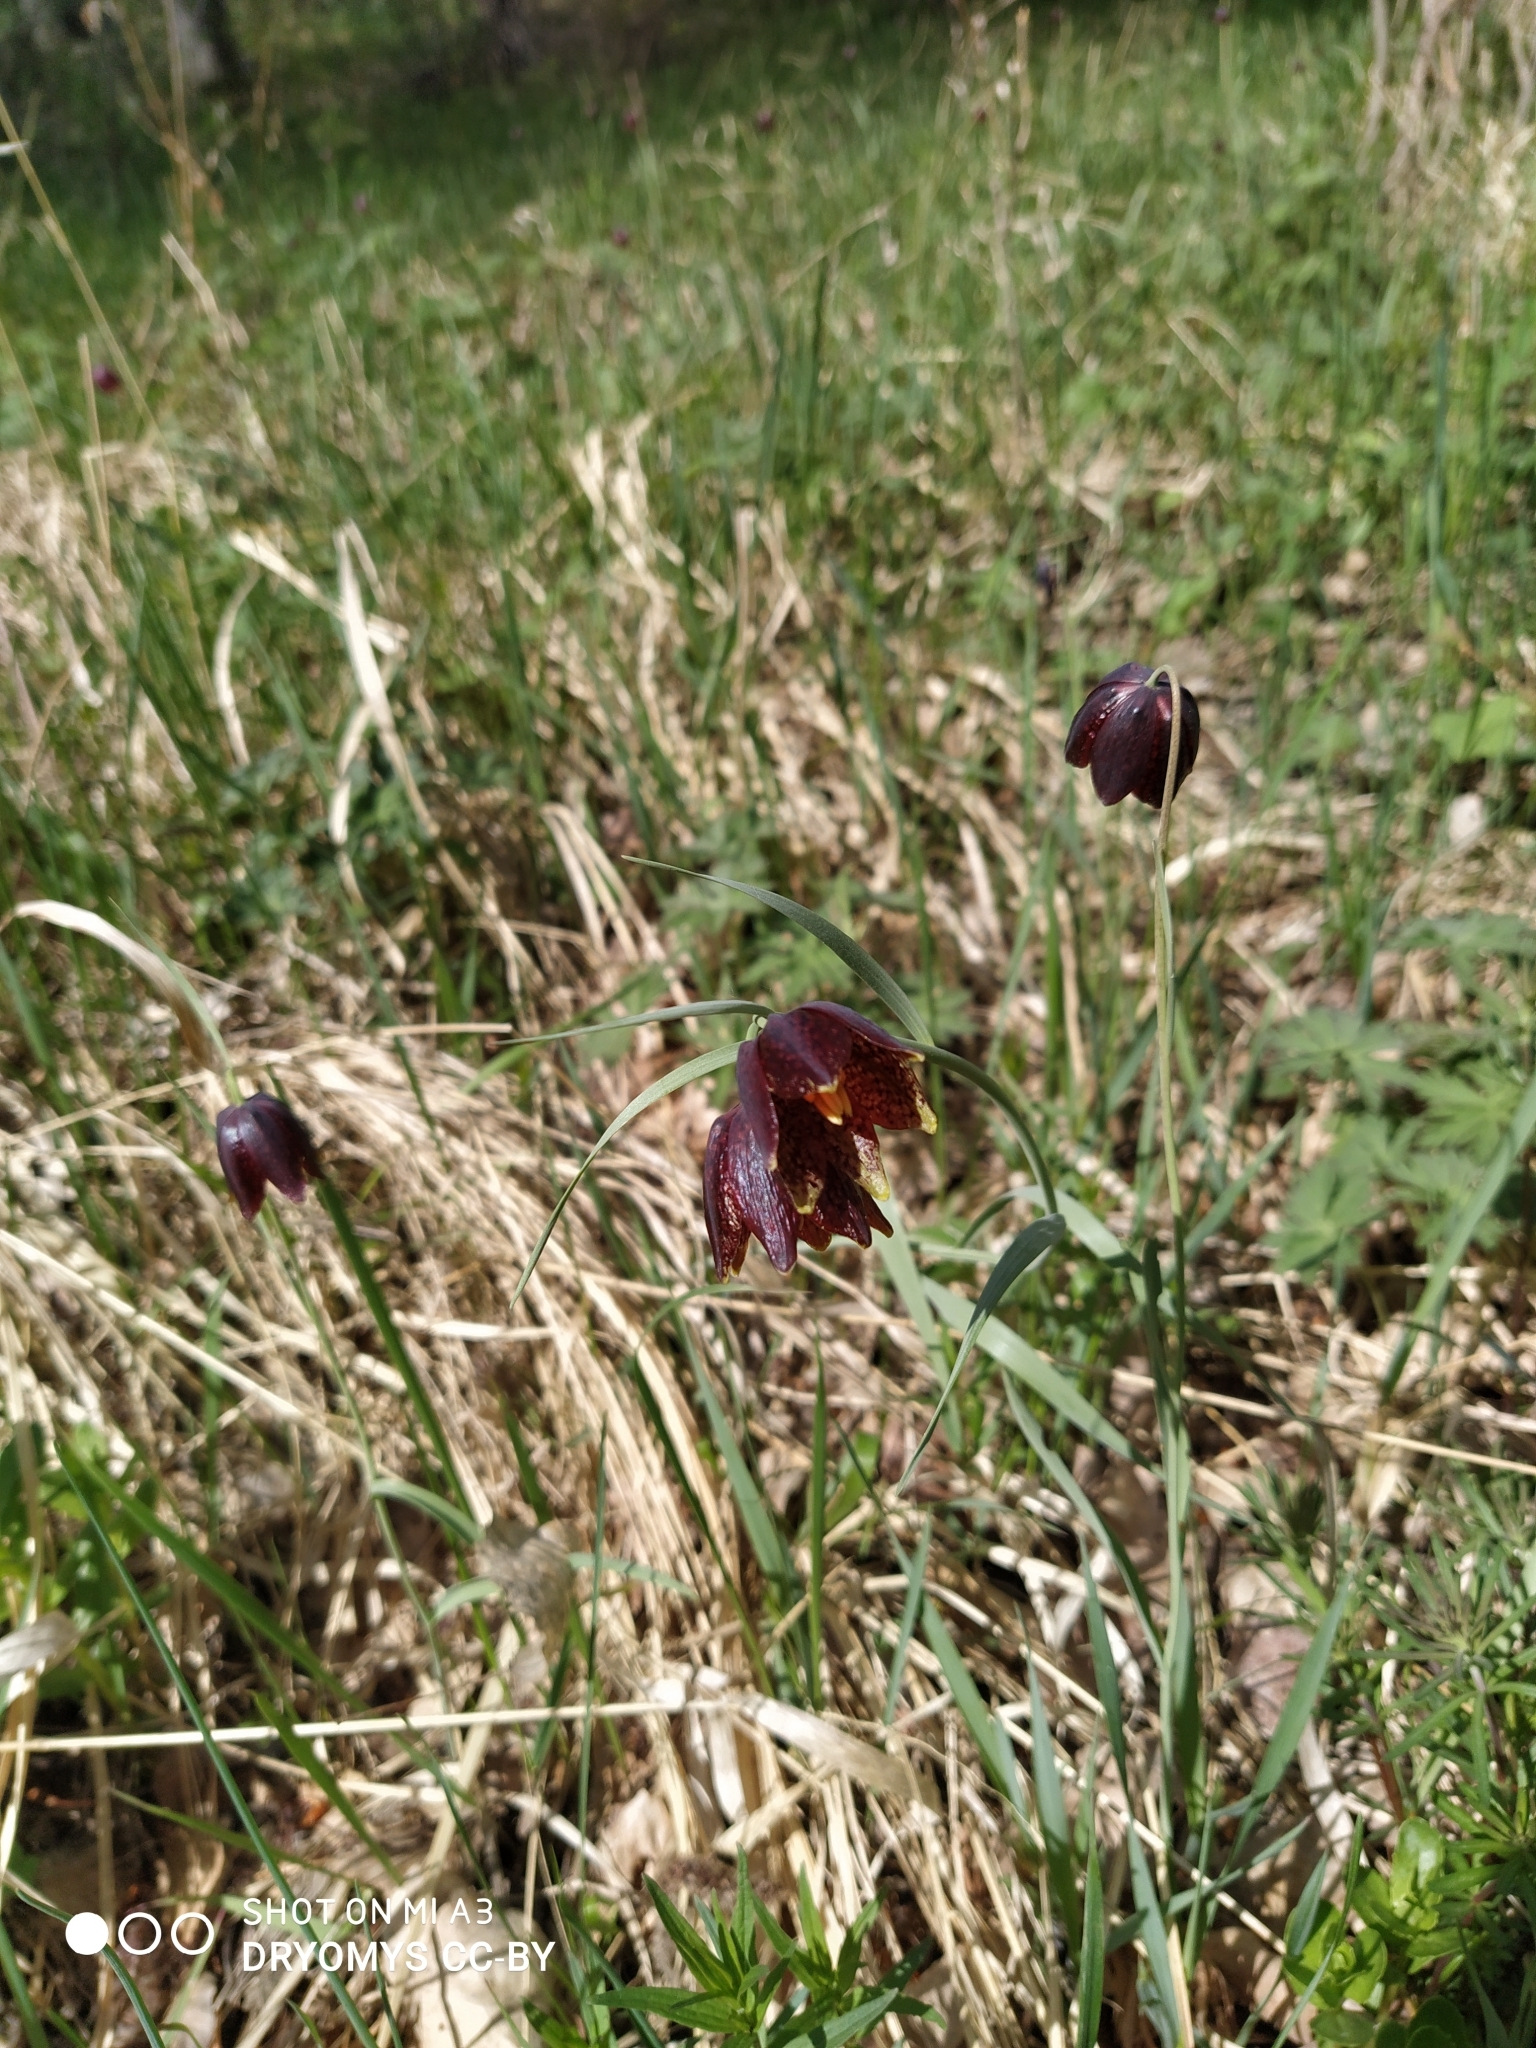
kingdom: Plantae
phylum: Tracheophyta
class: Liliopsida
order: Liliales
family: Liliaceae
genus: Fritillaria
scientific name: Fritillaria meleagroides
